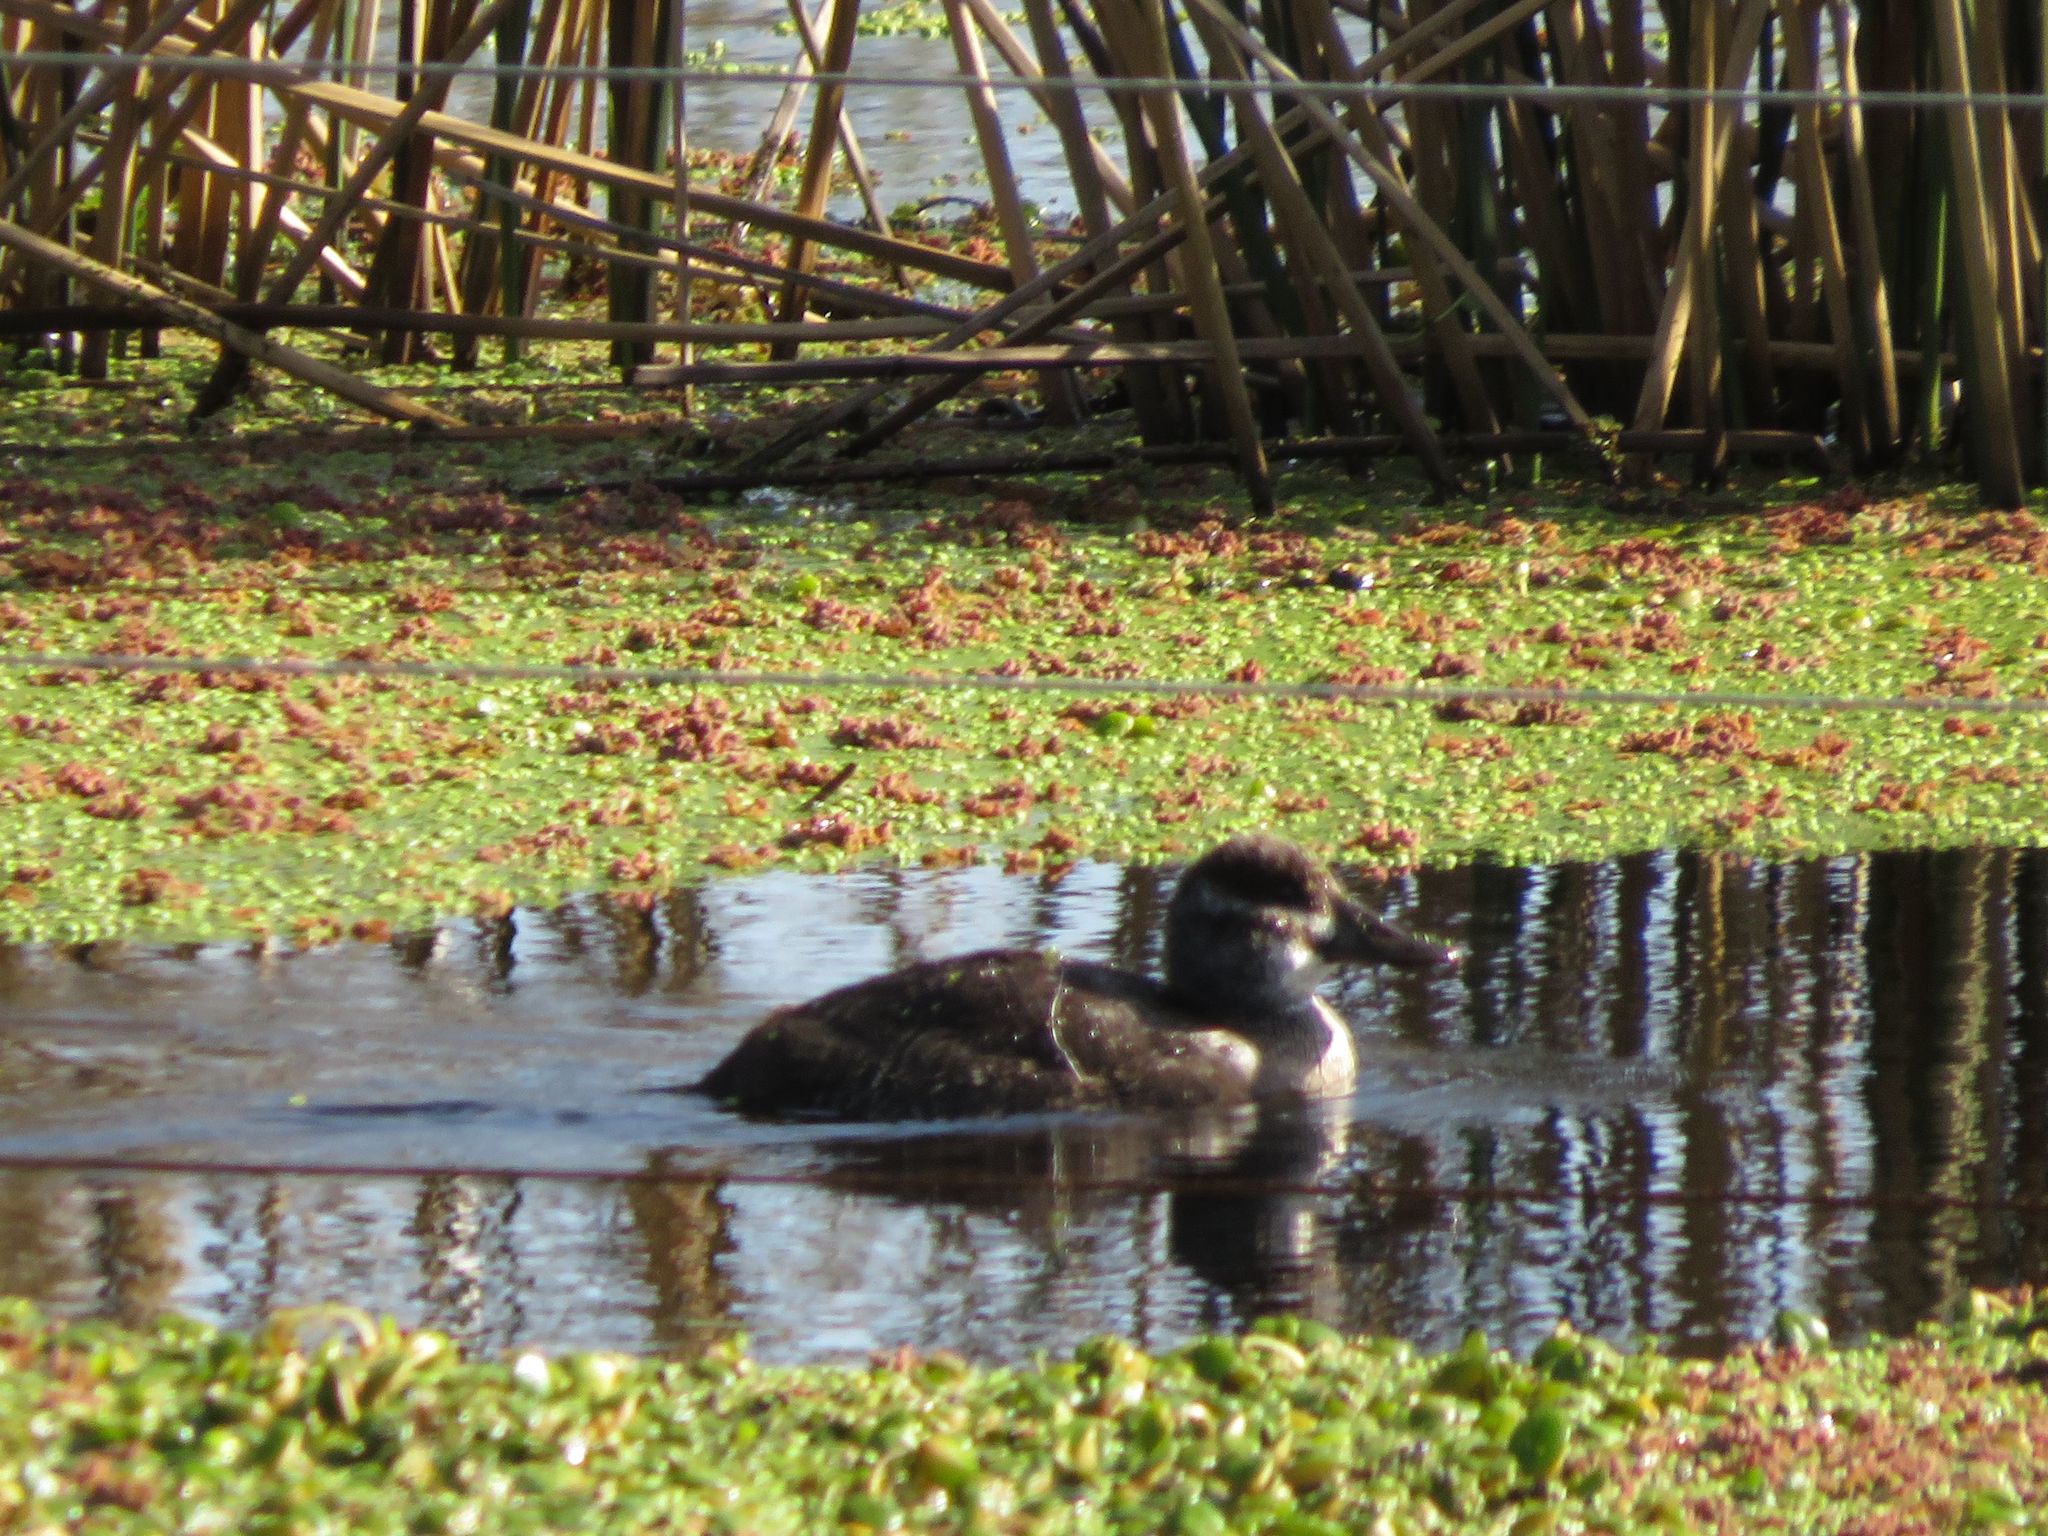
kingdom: Animalia
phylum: Chordata
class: Aves
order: Anseriformes
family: Anatidae
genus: Oxyura
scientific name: Oxyura vittata
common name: Lake duck
